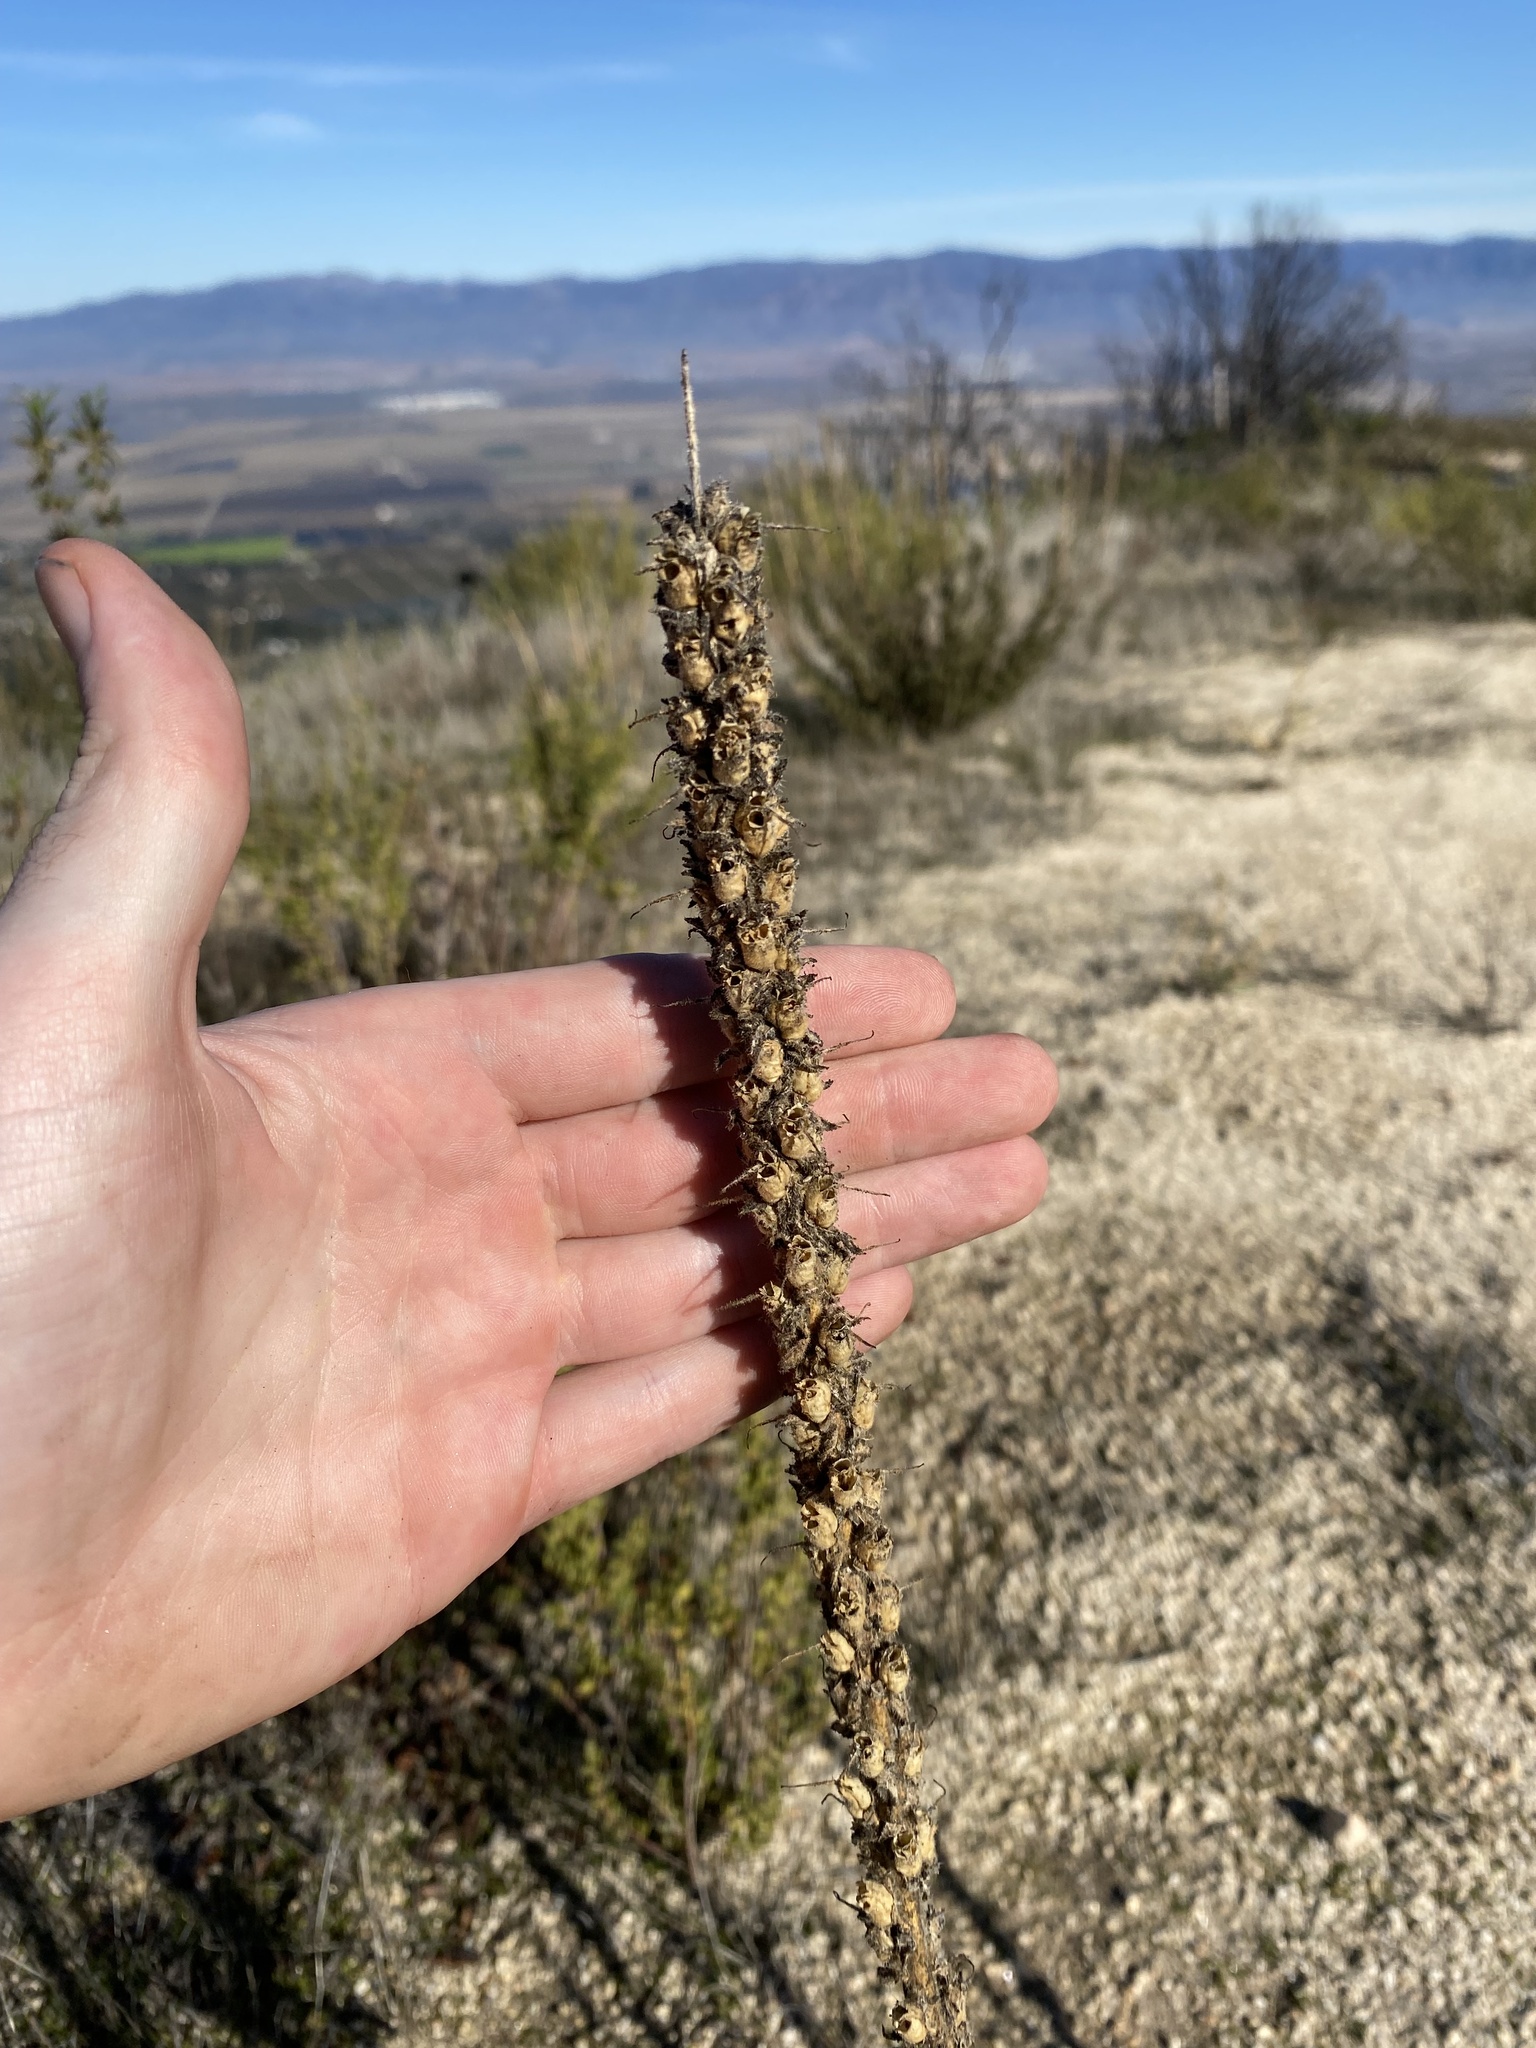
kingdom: Plantae
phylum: Tracheophyta
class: Magnoliopsida
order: Lamiales
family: Plantaginaceae
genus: Sairocarpus
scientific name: Sairocarpus multiflorus
